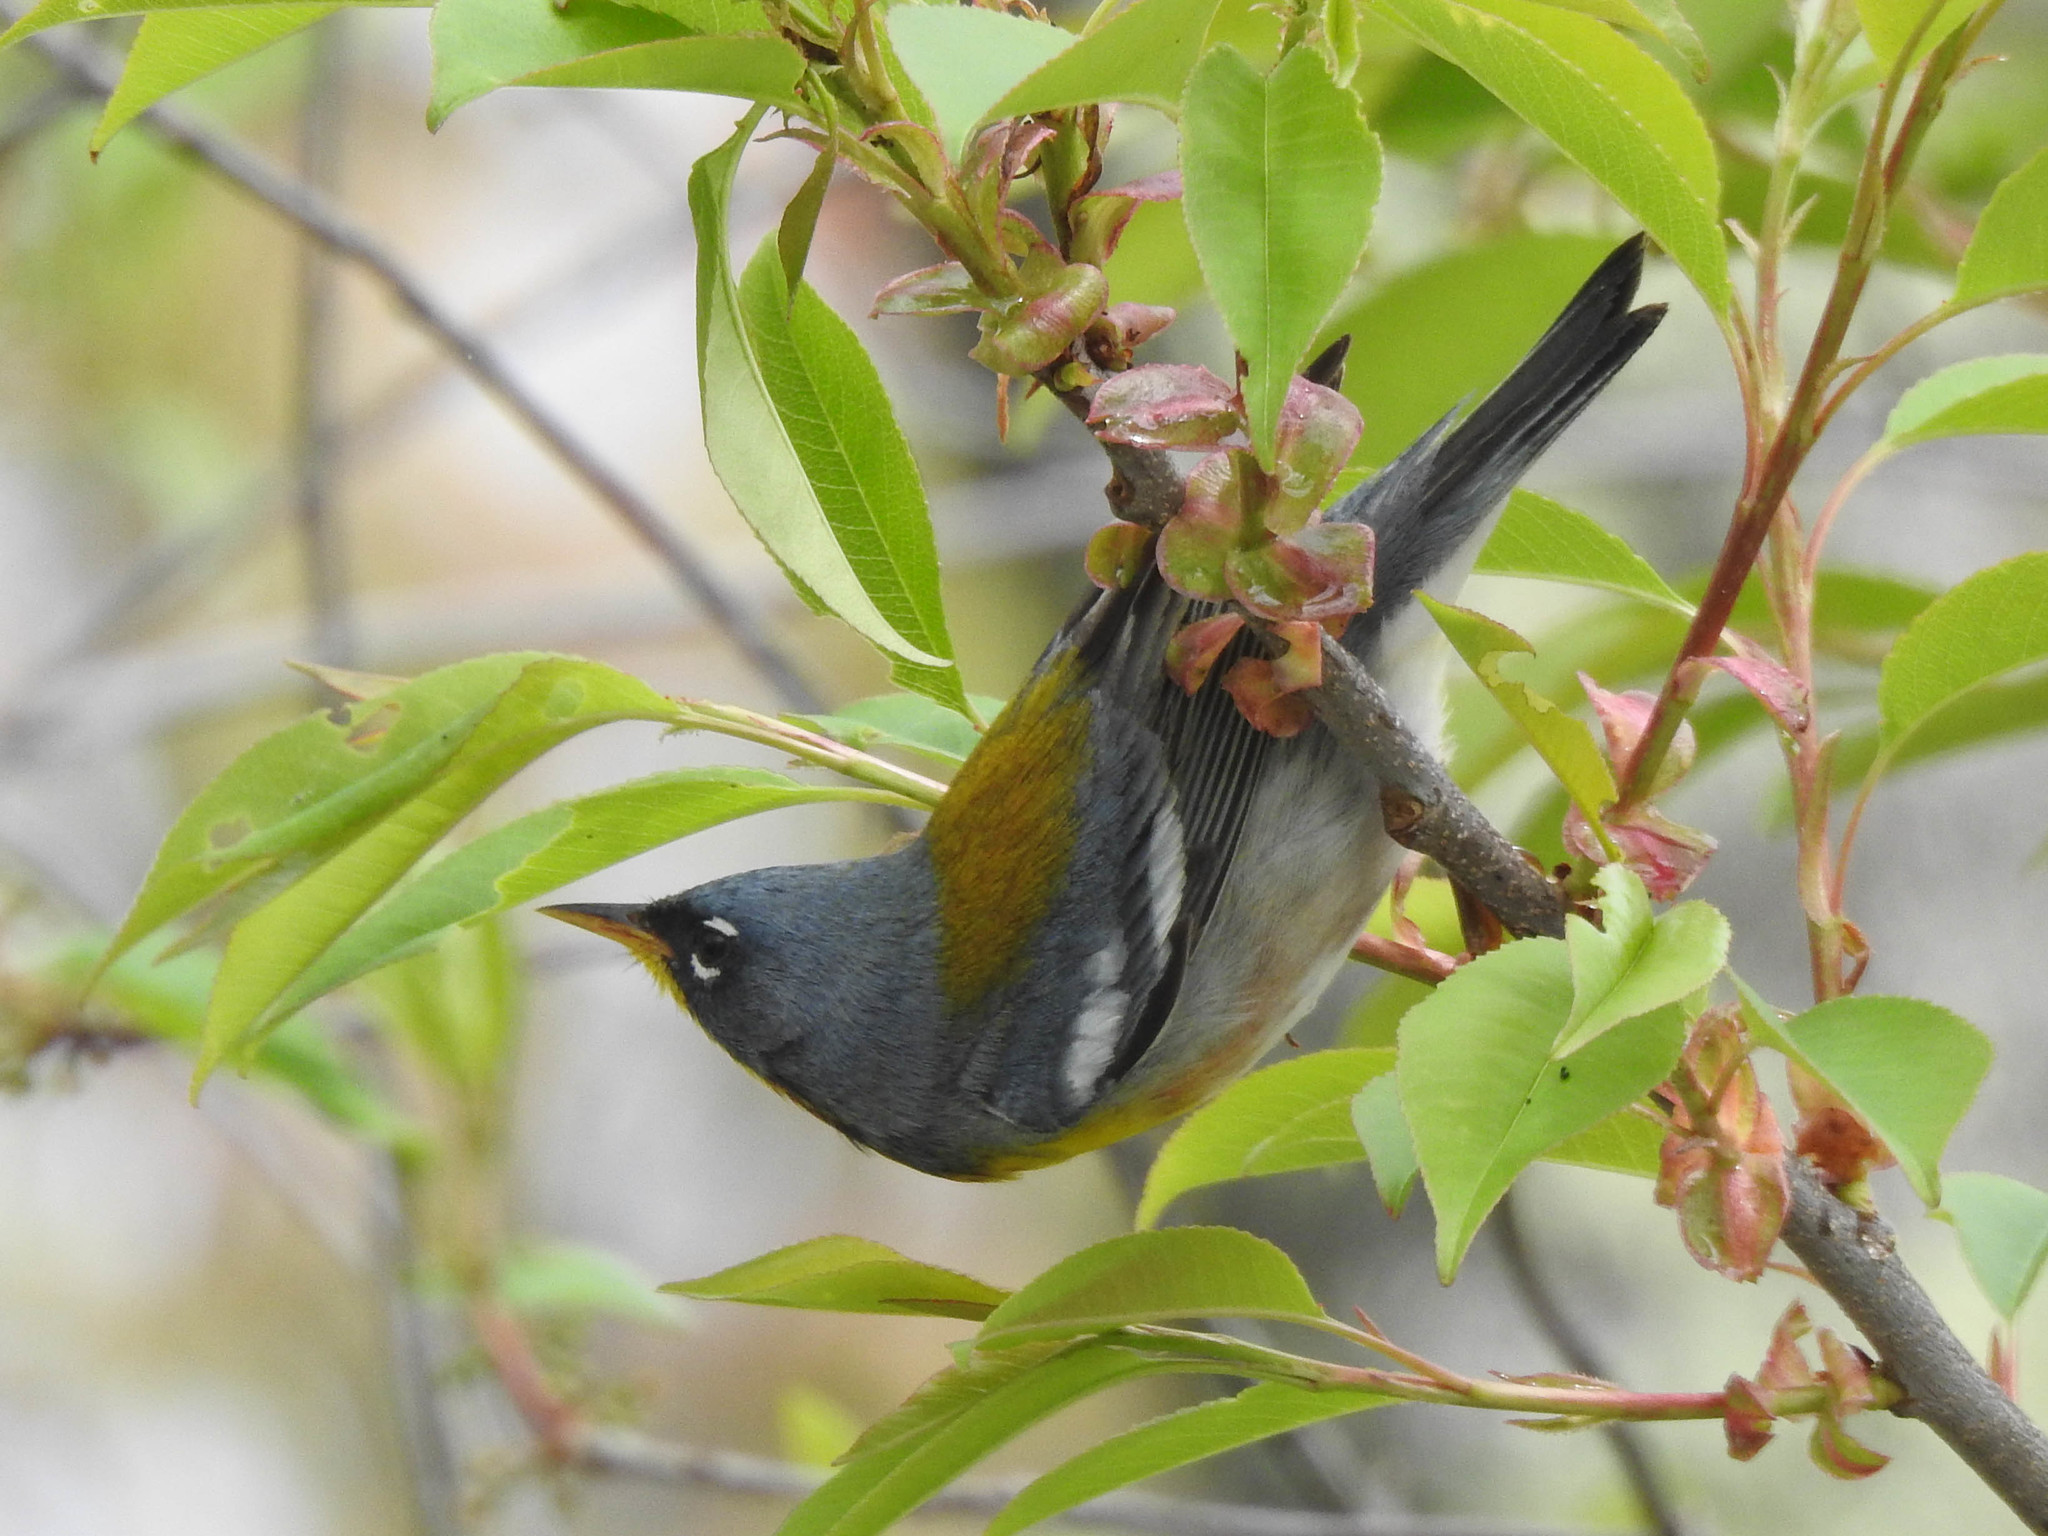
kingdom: Animalia
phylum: Chordata
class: Aves
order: Passeriformes
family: Parulidae
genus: Setophaga
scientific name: Setophaga americana
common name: Northern parula
